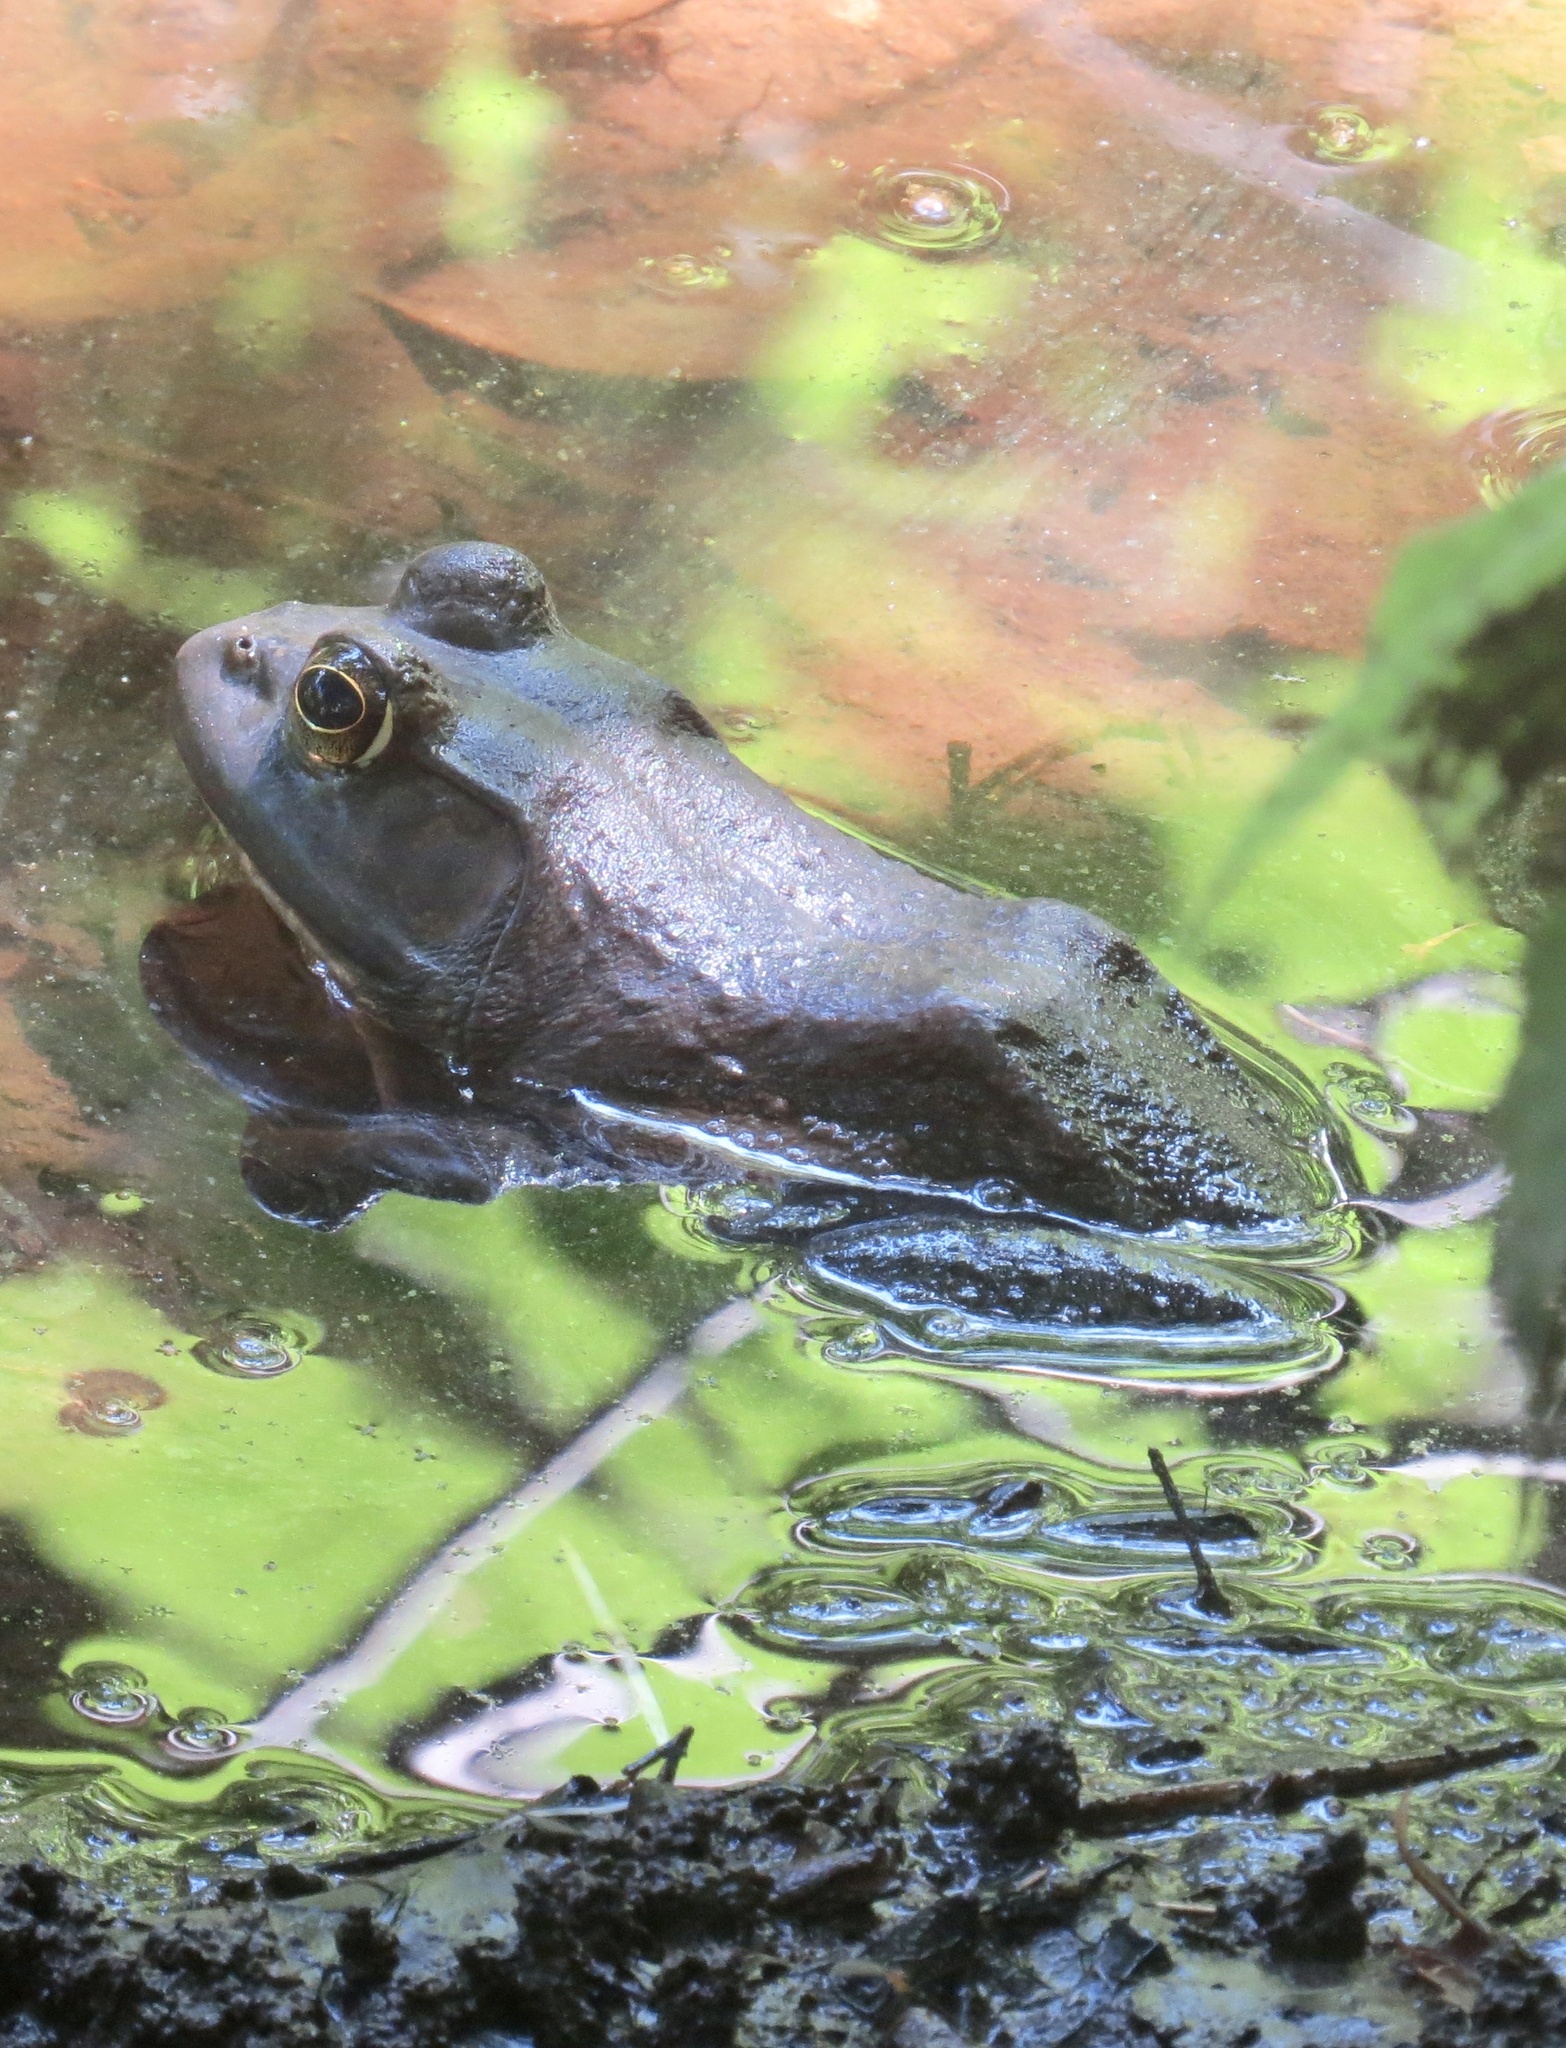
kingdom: Animalia
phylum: Chordata
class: Amphibia
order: Anura
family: Ranidae
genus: Lithobates
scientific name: Lithobates catesbeianus
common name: American bullfrog
